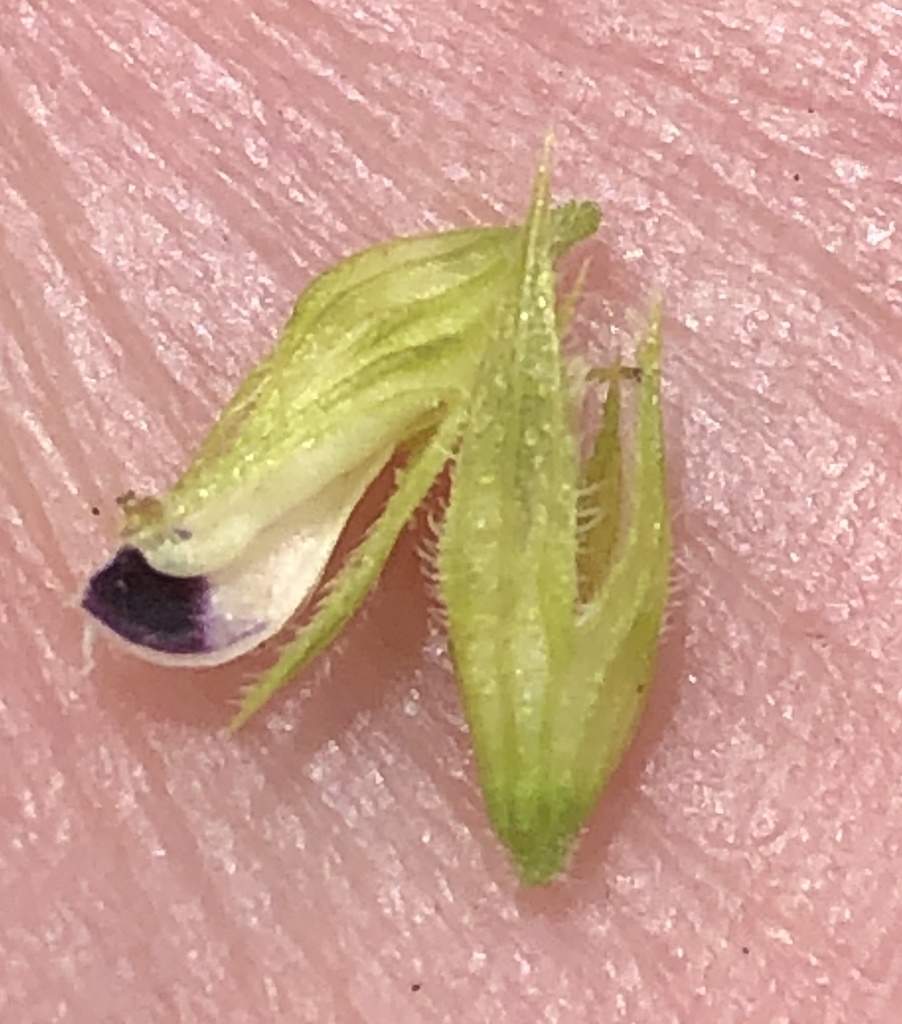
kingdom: Plantae
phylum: Tracheophyta
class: Magnoliopsida
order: Fabales
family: Fabaceae
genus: Psoralea
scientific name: Psoralea bowieana
